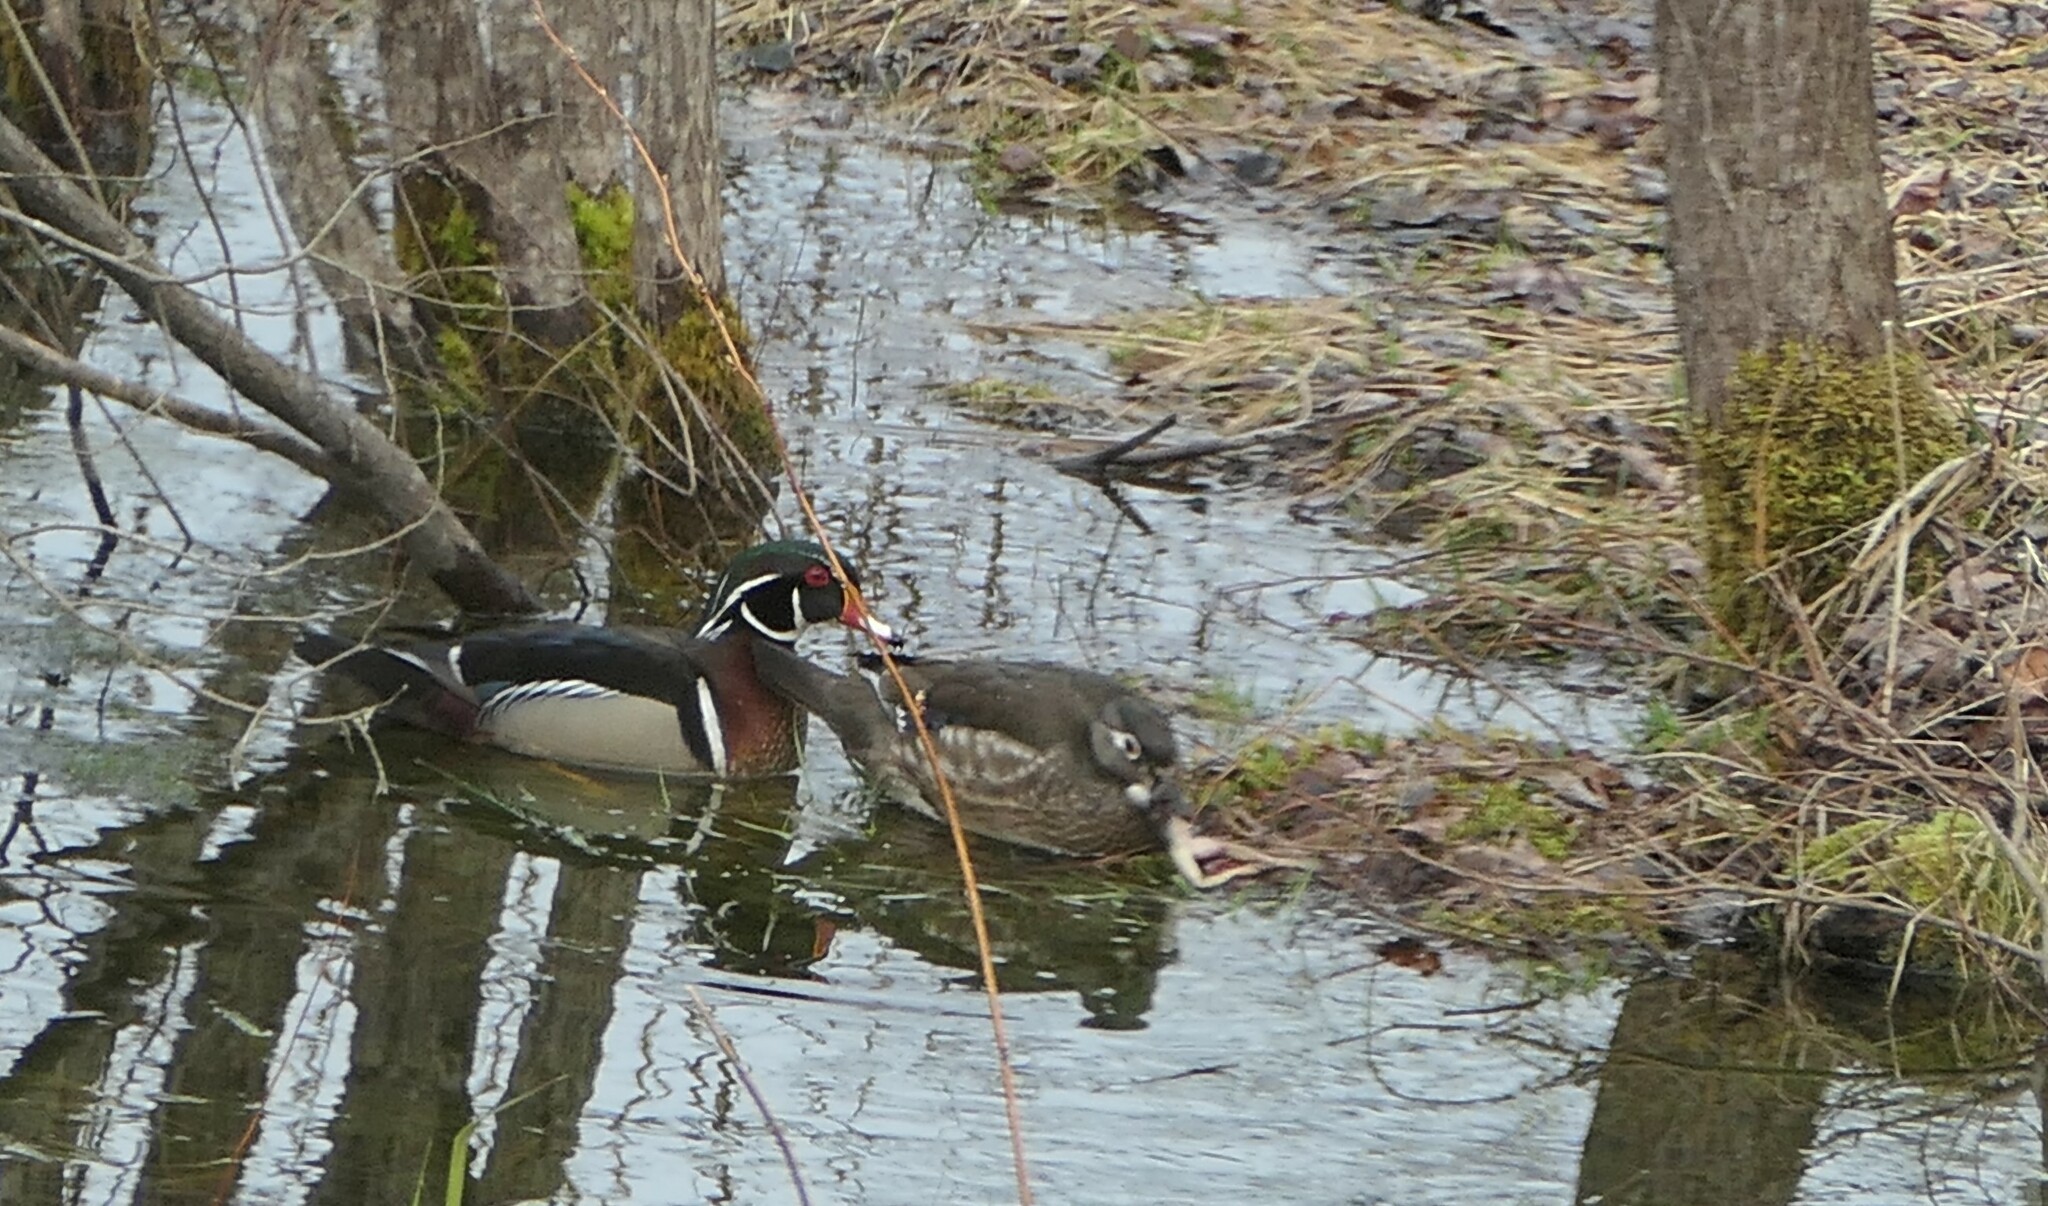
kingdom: Animalia
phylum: Chordata
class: Aves
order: Anseriformes
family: Anatidae
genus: Aix
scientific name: Aix sponsa
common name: Wood duck
